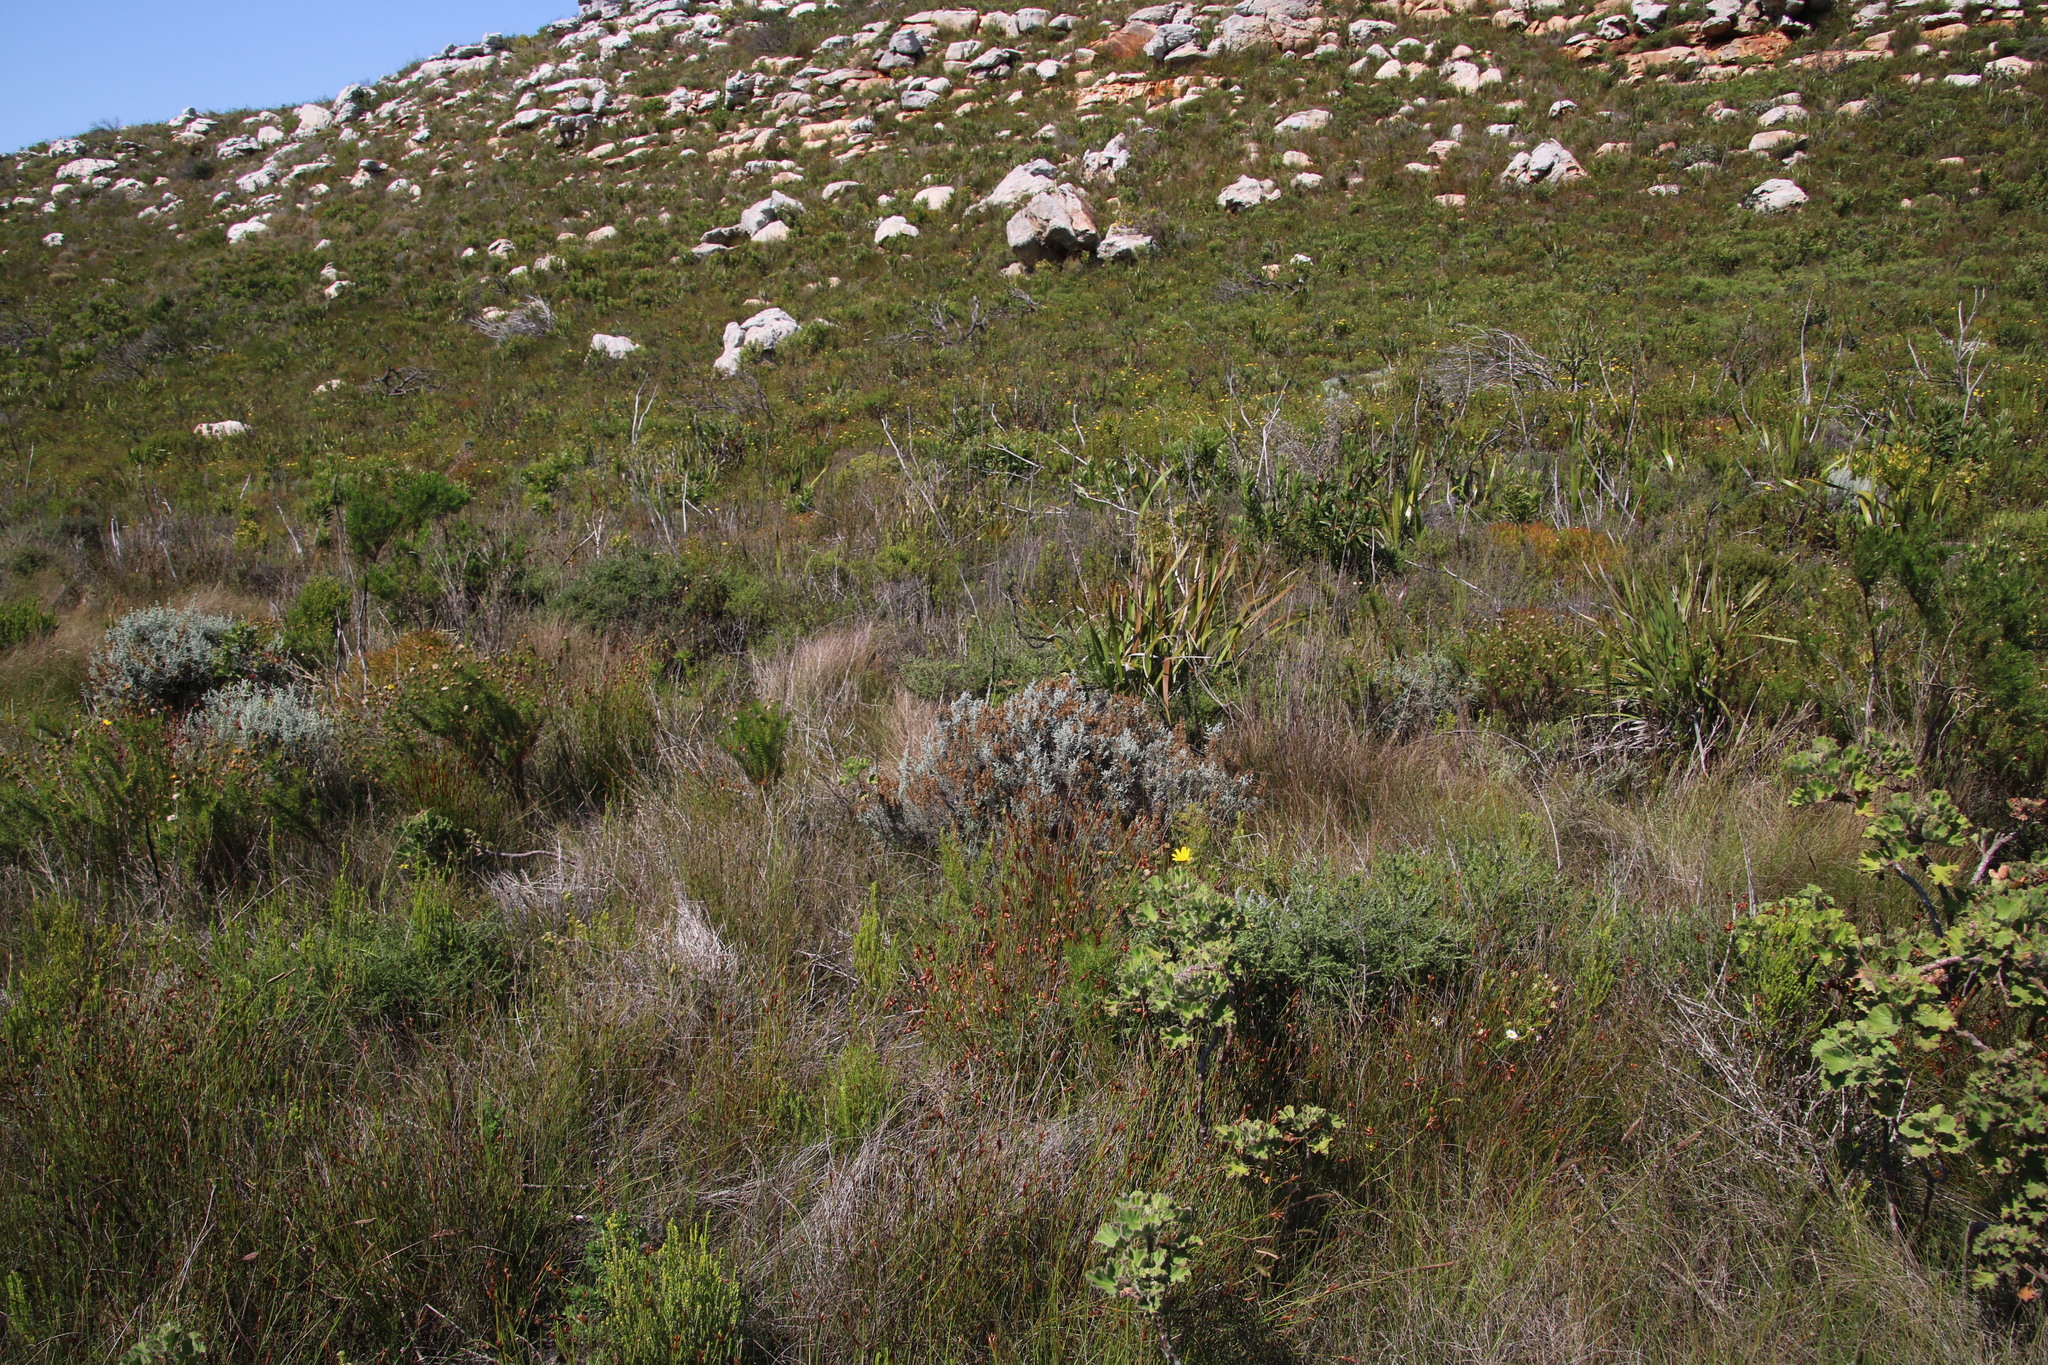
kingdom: Plantae
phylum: Tracheophyta
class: Magnoliopsida
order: Asterales
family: Asteraceae
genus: Seriphium
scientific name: Seriphium plumosum
